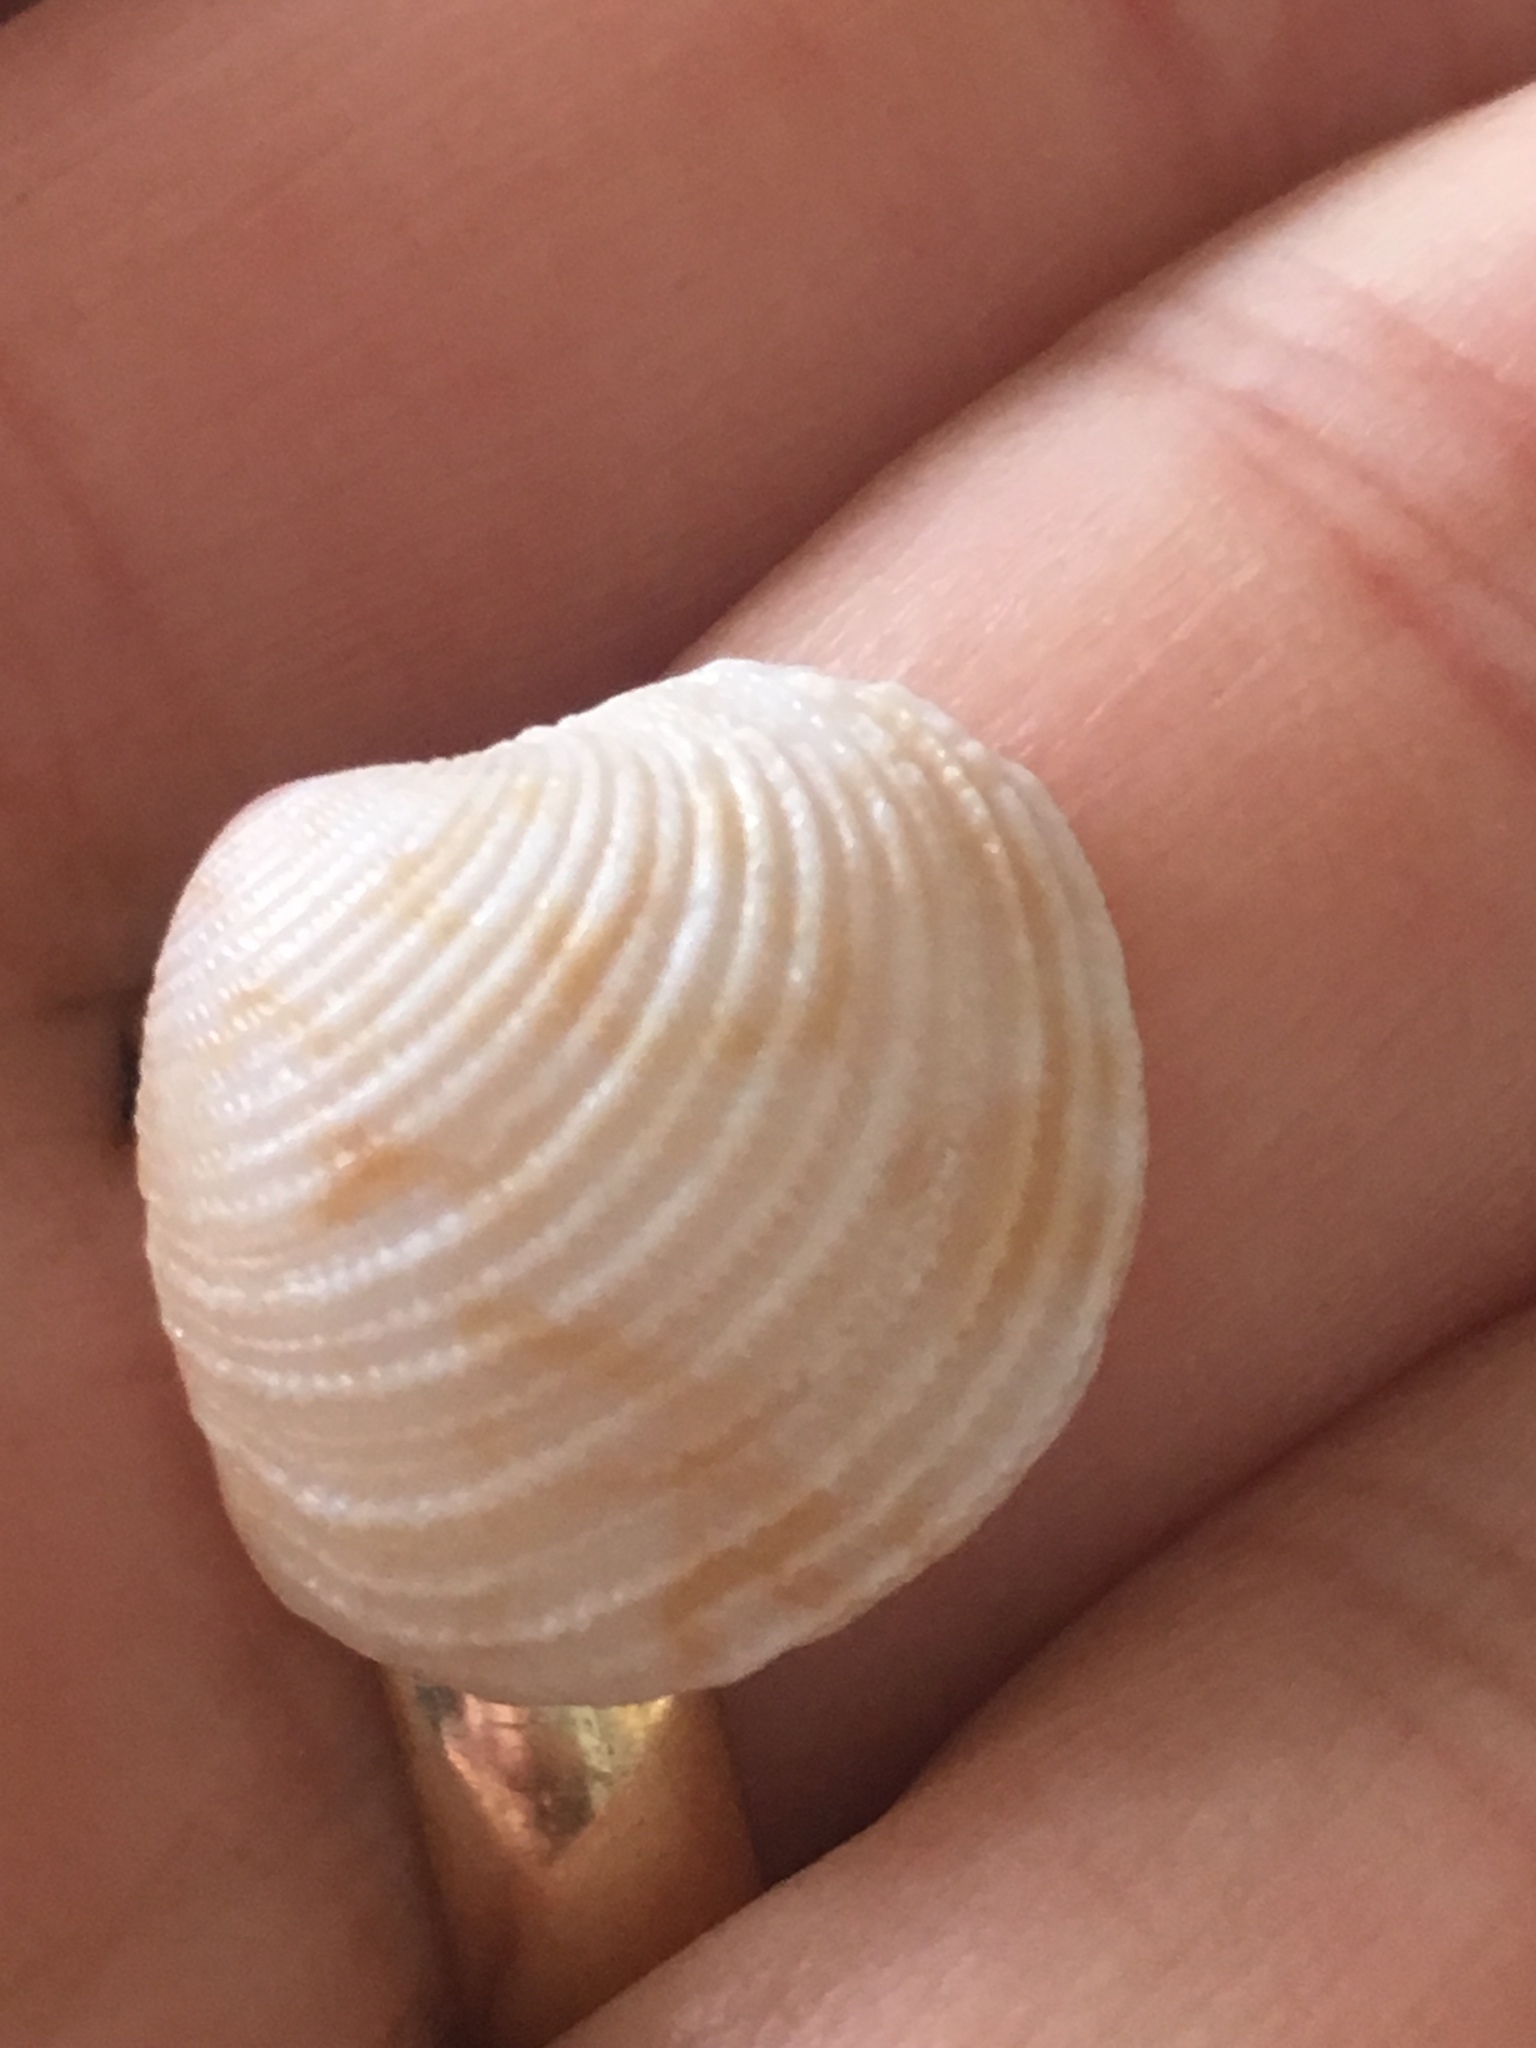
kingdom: Animalia
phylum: Mollusca
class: Bivalvia
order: Venerida
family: Veneridae
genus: Chionopsis
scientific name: Chionopsis intapurpurea
